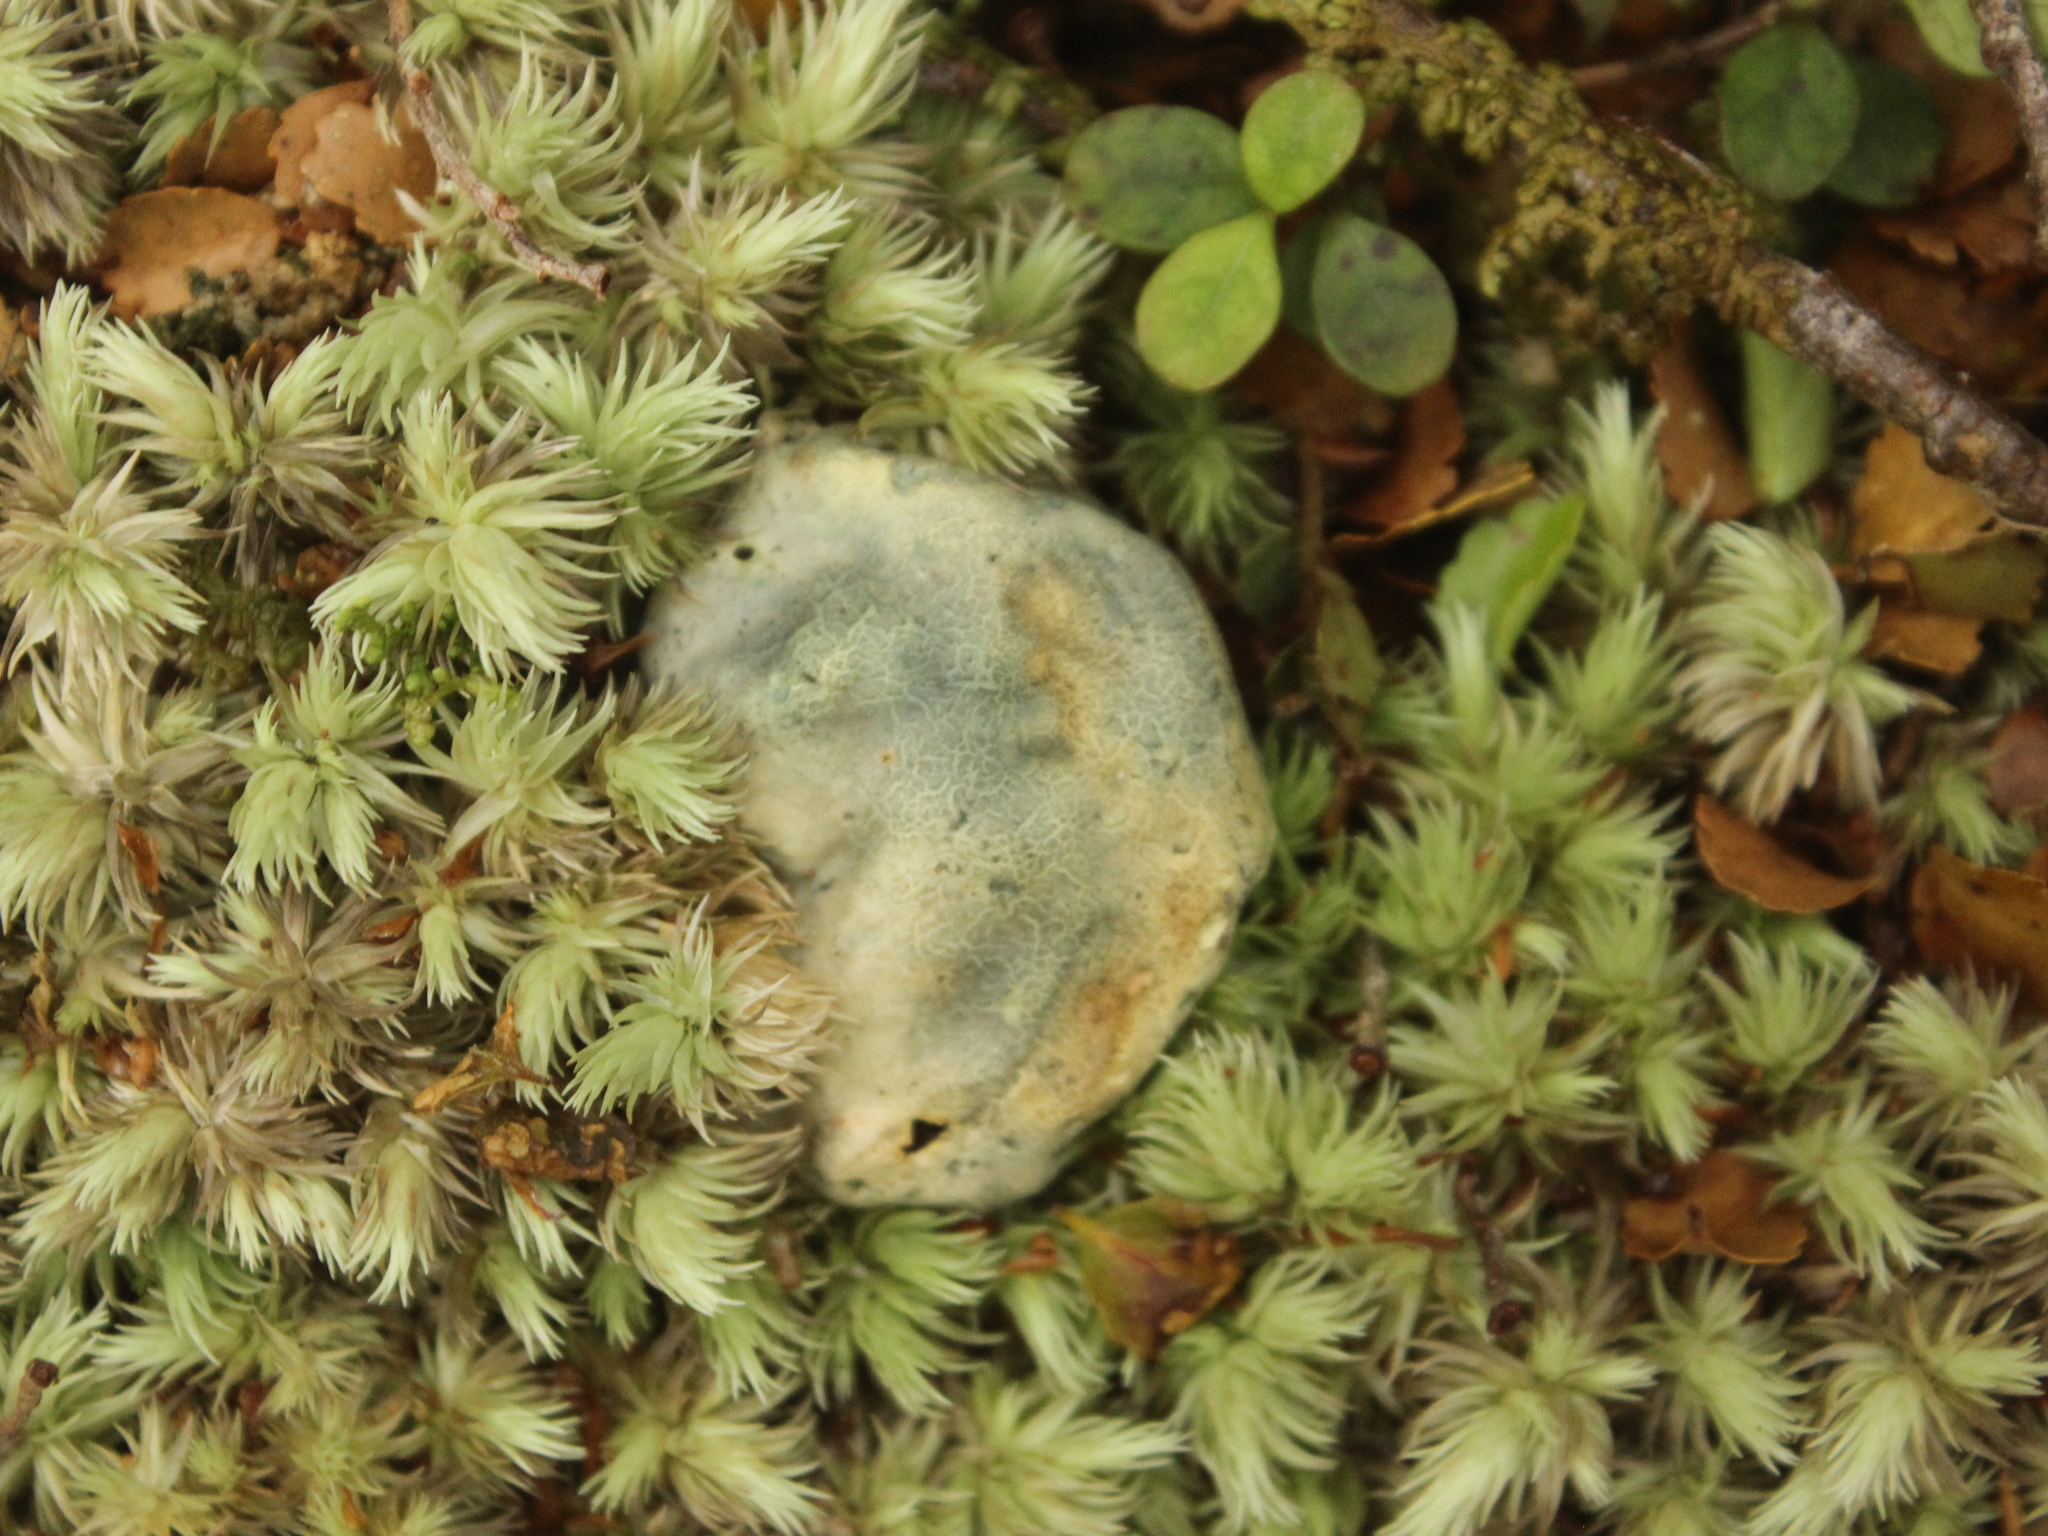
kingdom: Fungi
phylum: Basidiomycota
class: Agaricomycetes
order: Boletales
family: Boletaceae
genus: Leccinum
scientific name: Leccinum pachyderme
